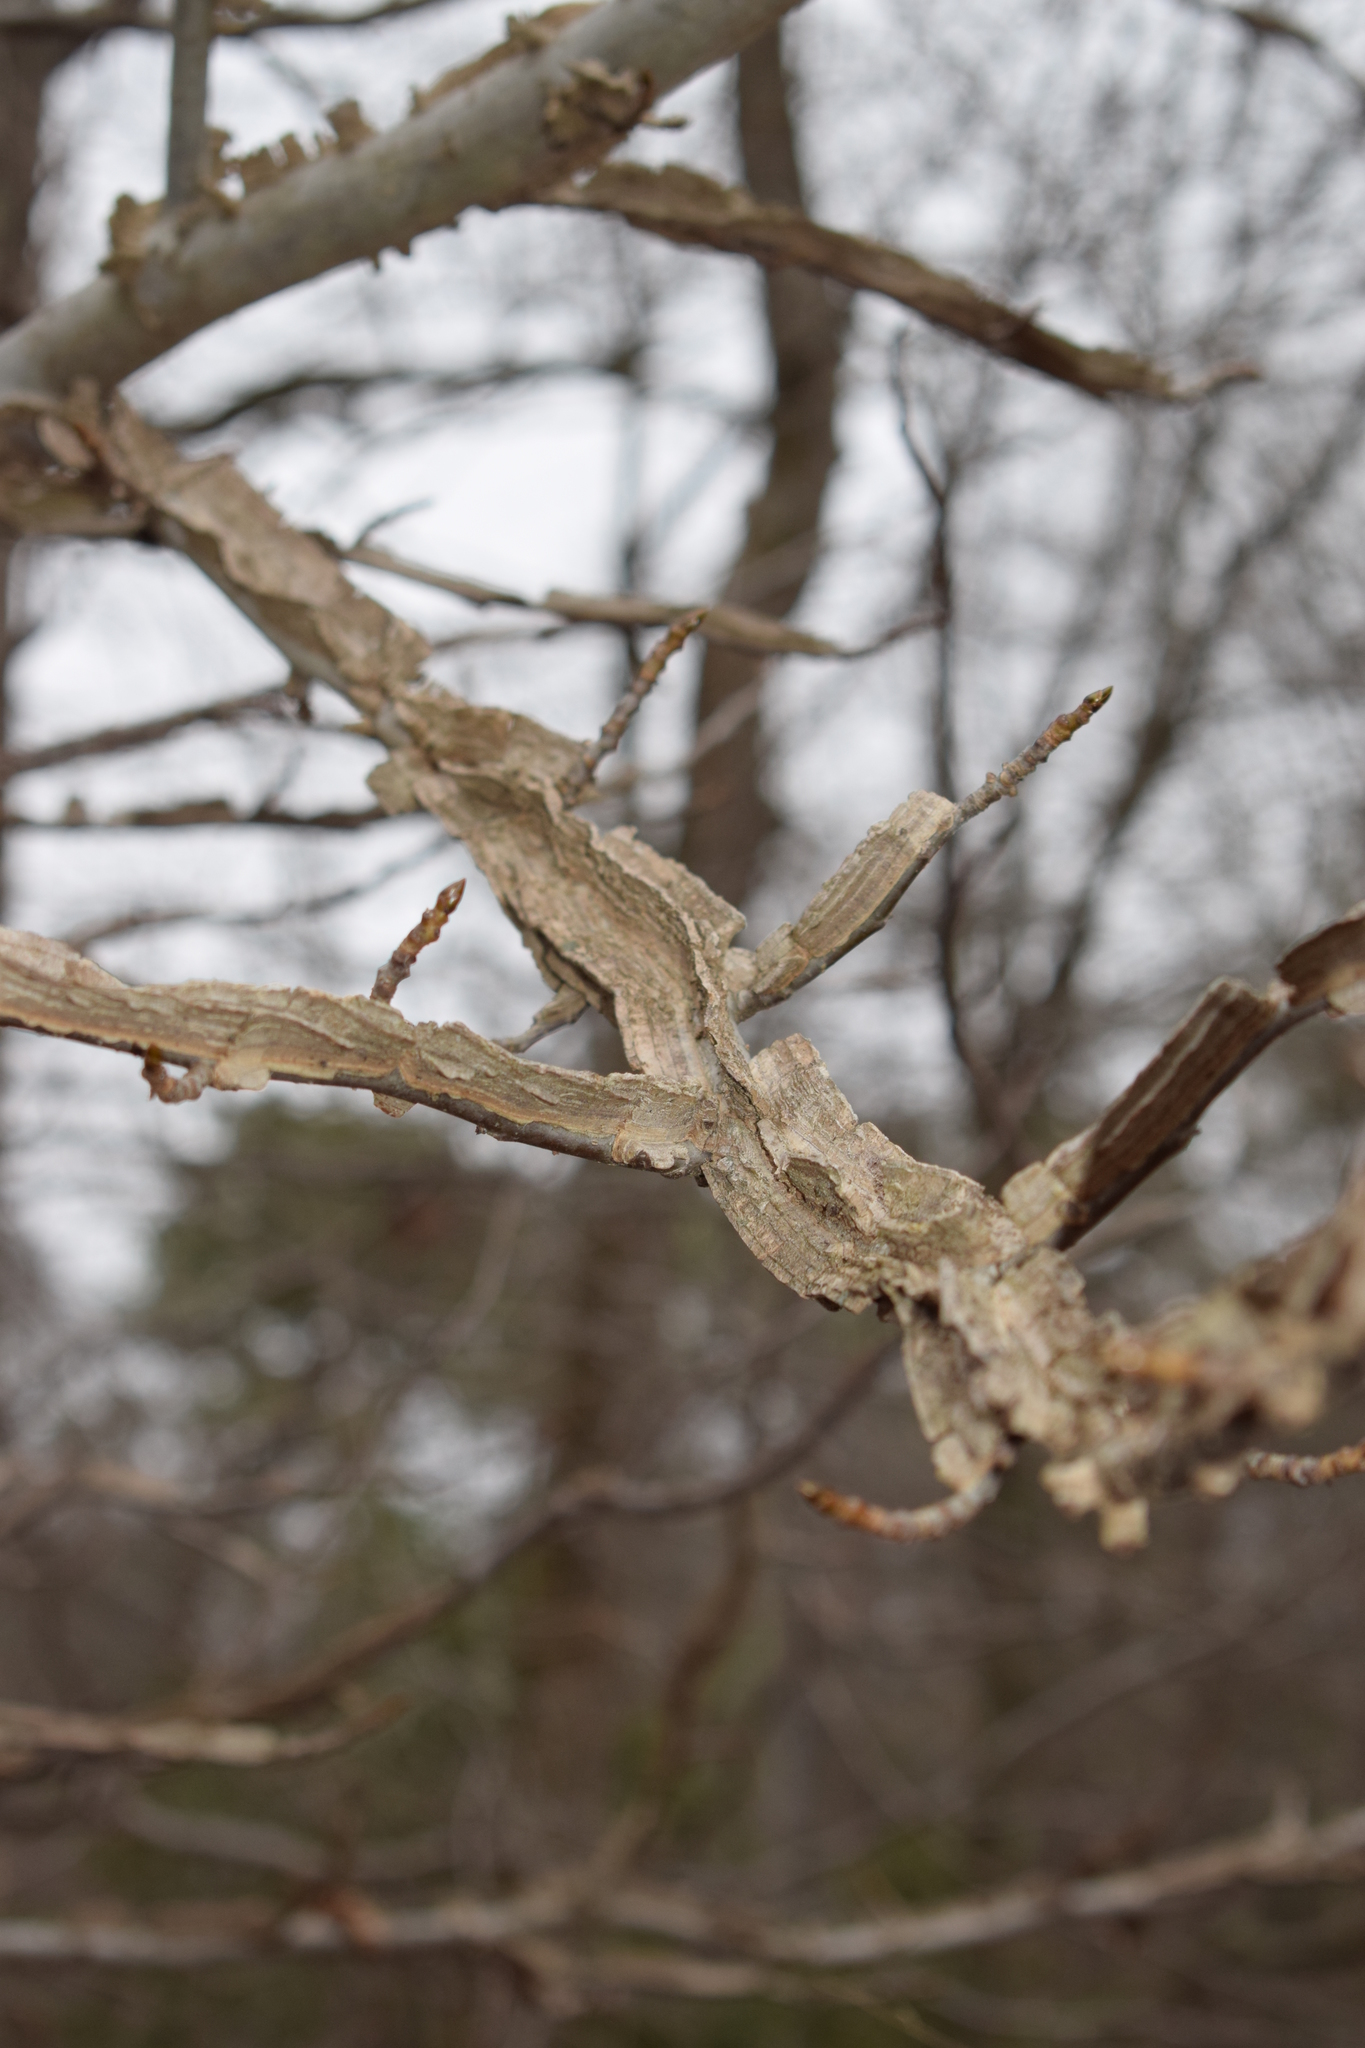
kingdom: Plantae
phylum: Tracheophyta
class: Magnoliopsida
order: Saxifragales
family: Altingiaceae
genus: Liquidambar
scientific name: Liquidambar styraciflua
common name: Sweet gum
